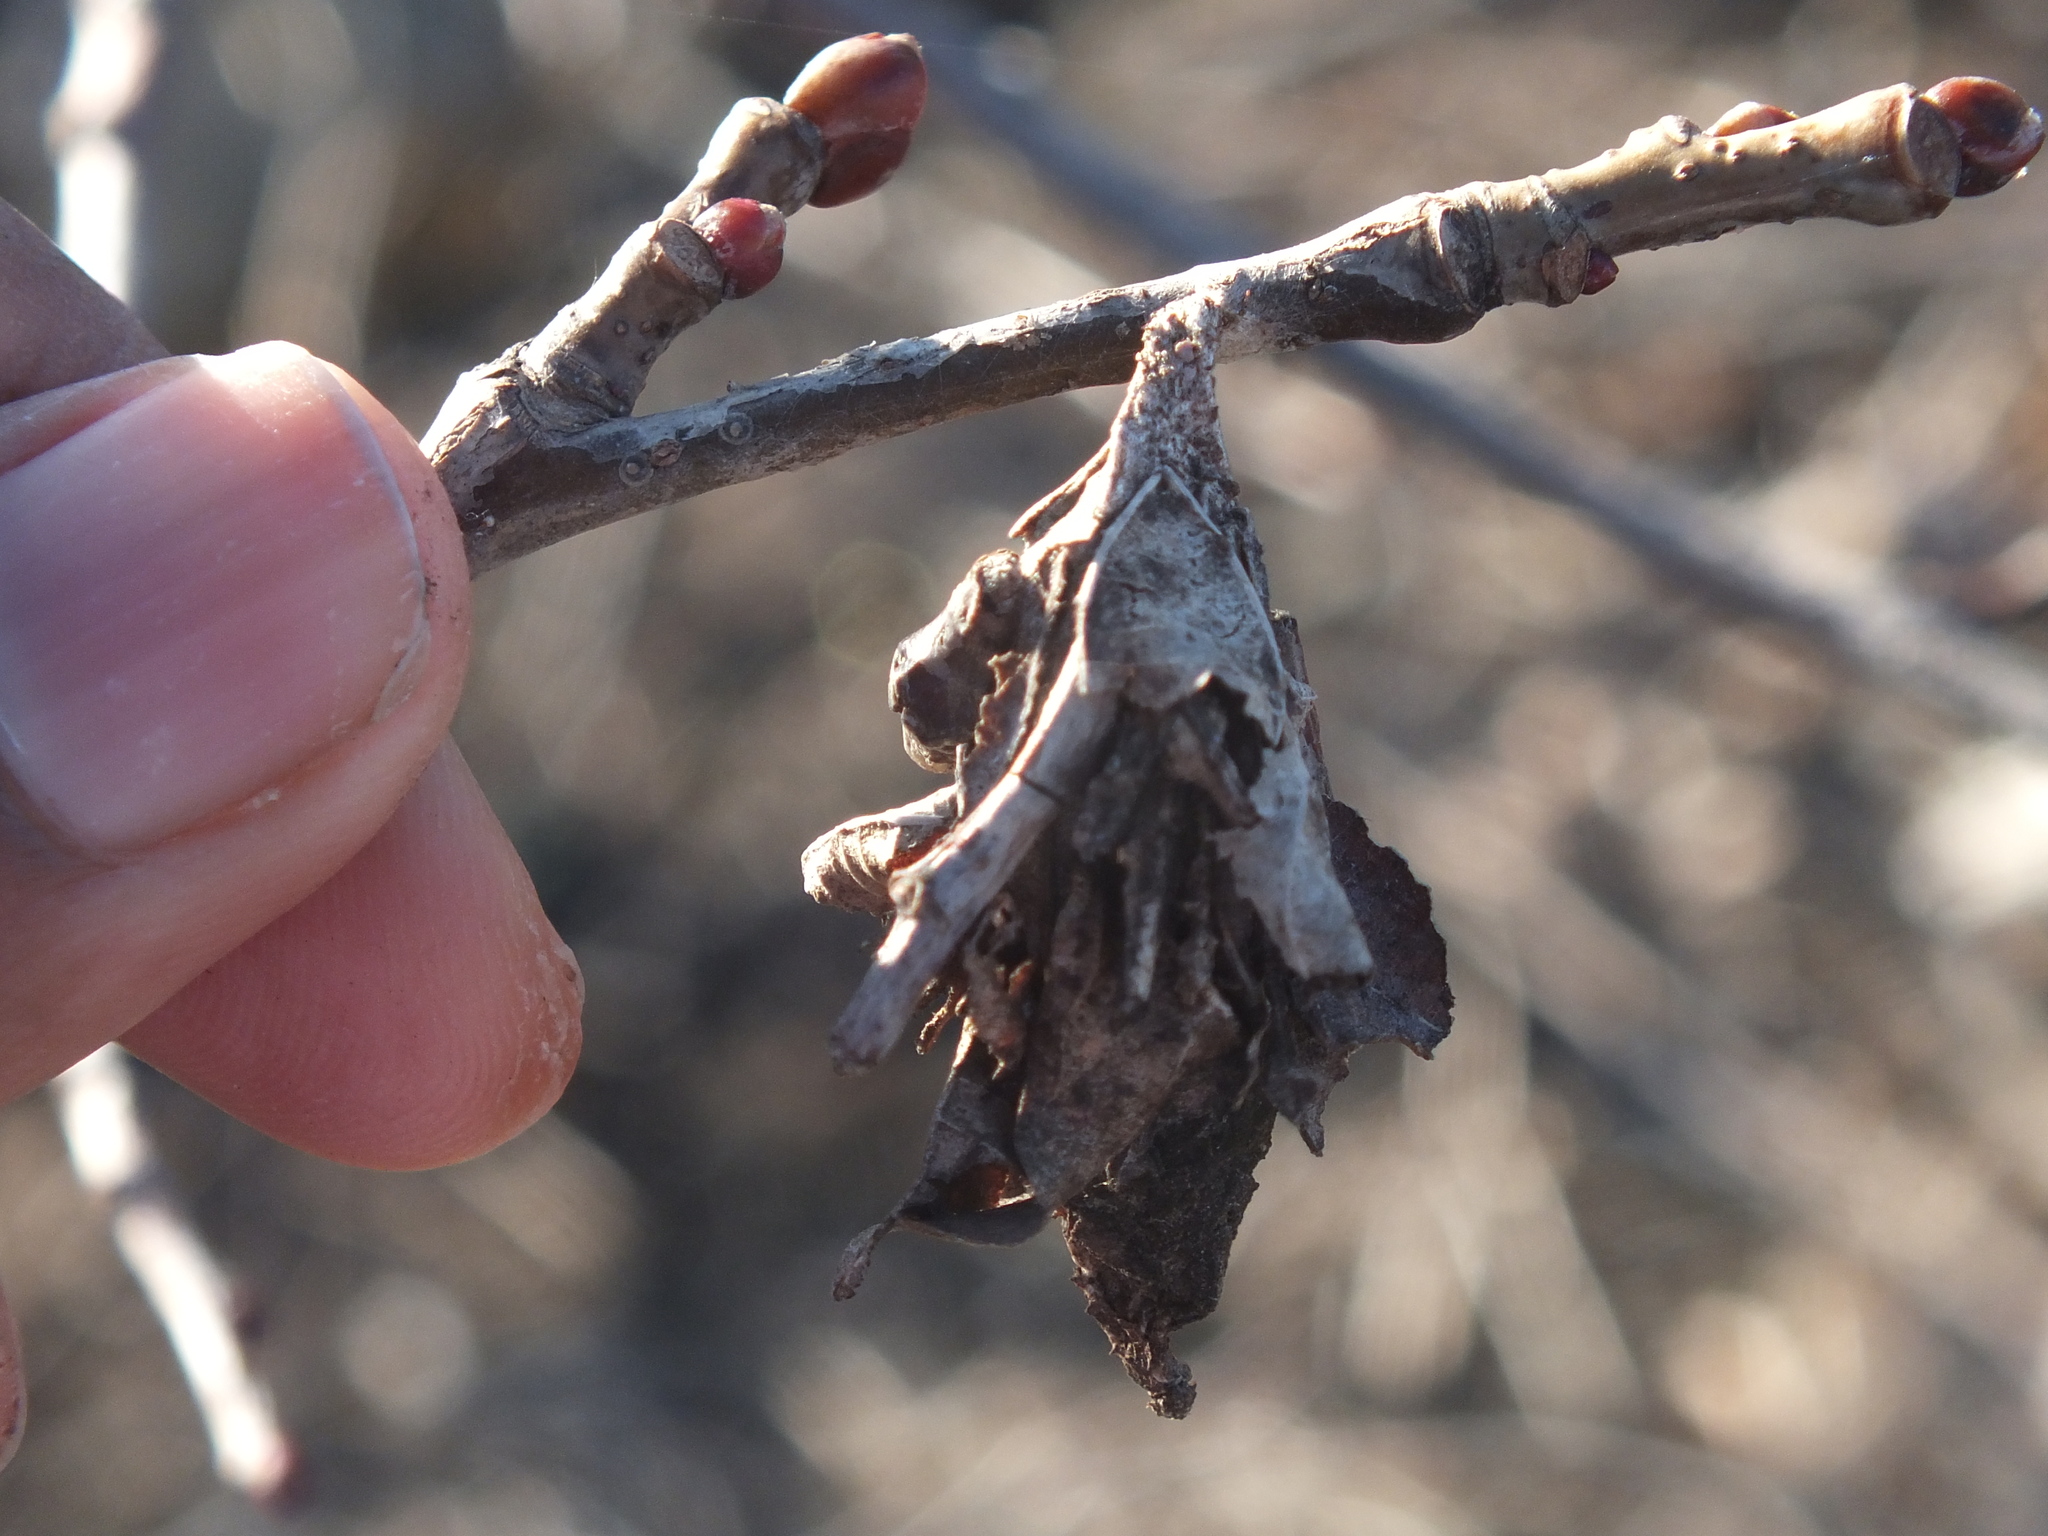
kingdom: Plantae
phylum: Tracheophyta
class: Magnoliopsida
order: Malvales
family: Malvaceae
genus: Tilia
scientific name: Tilia americana
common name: Basswood
